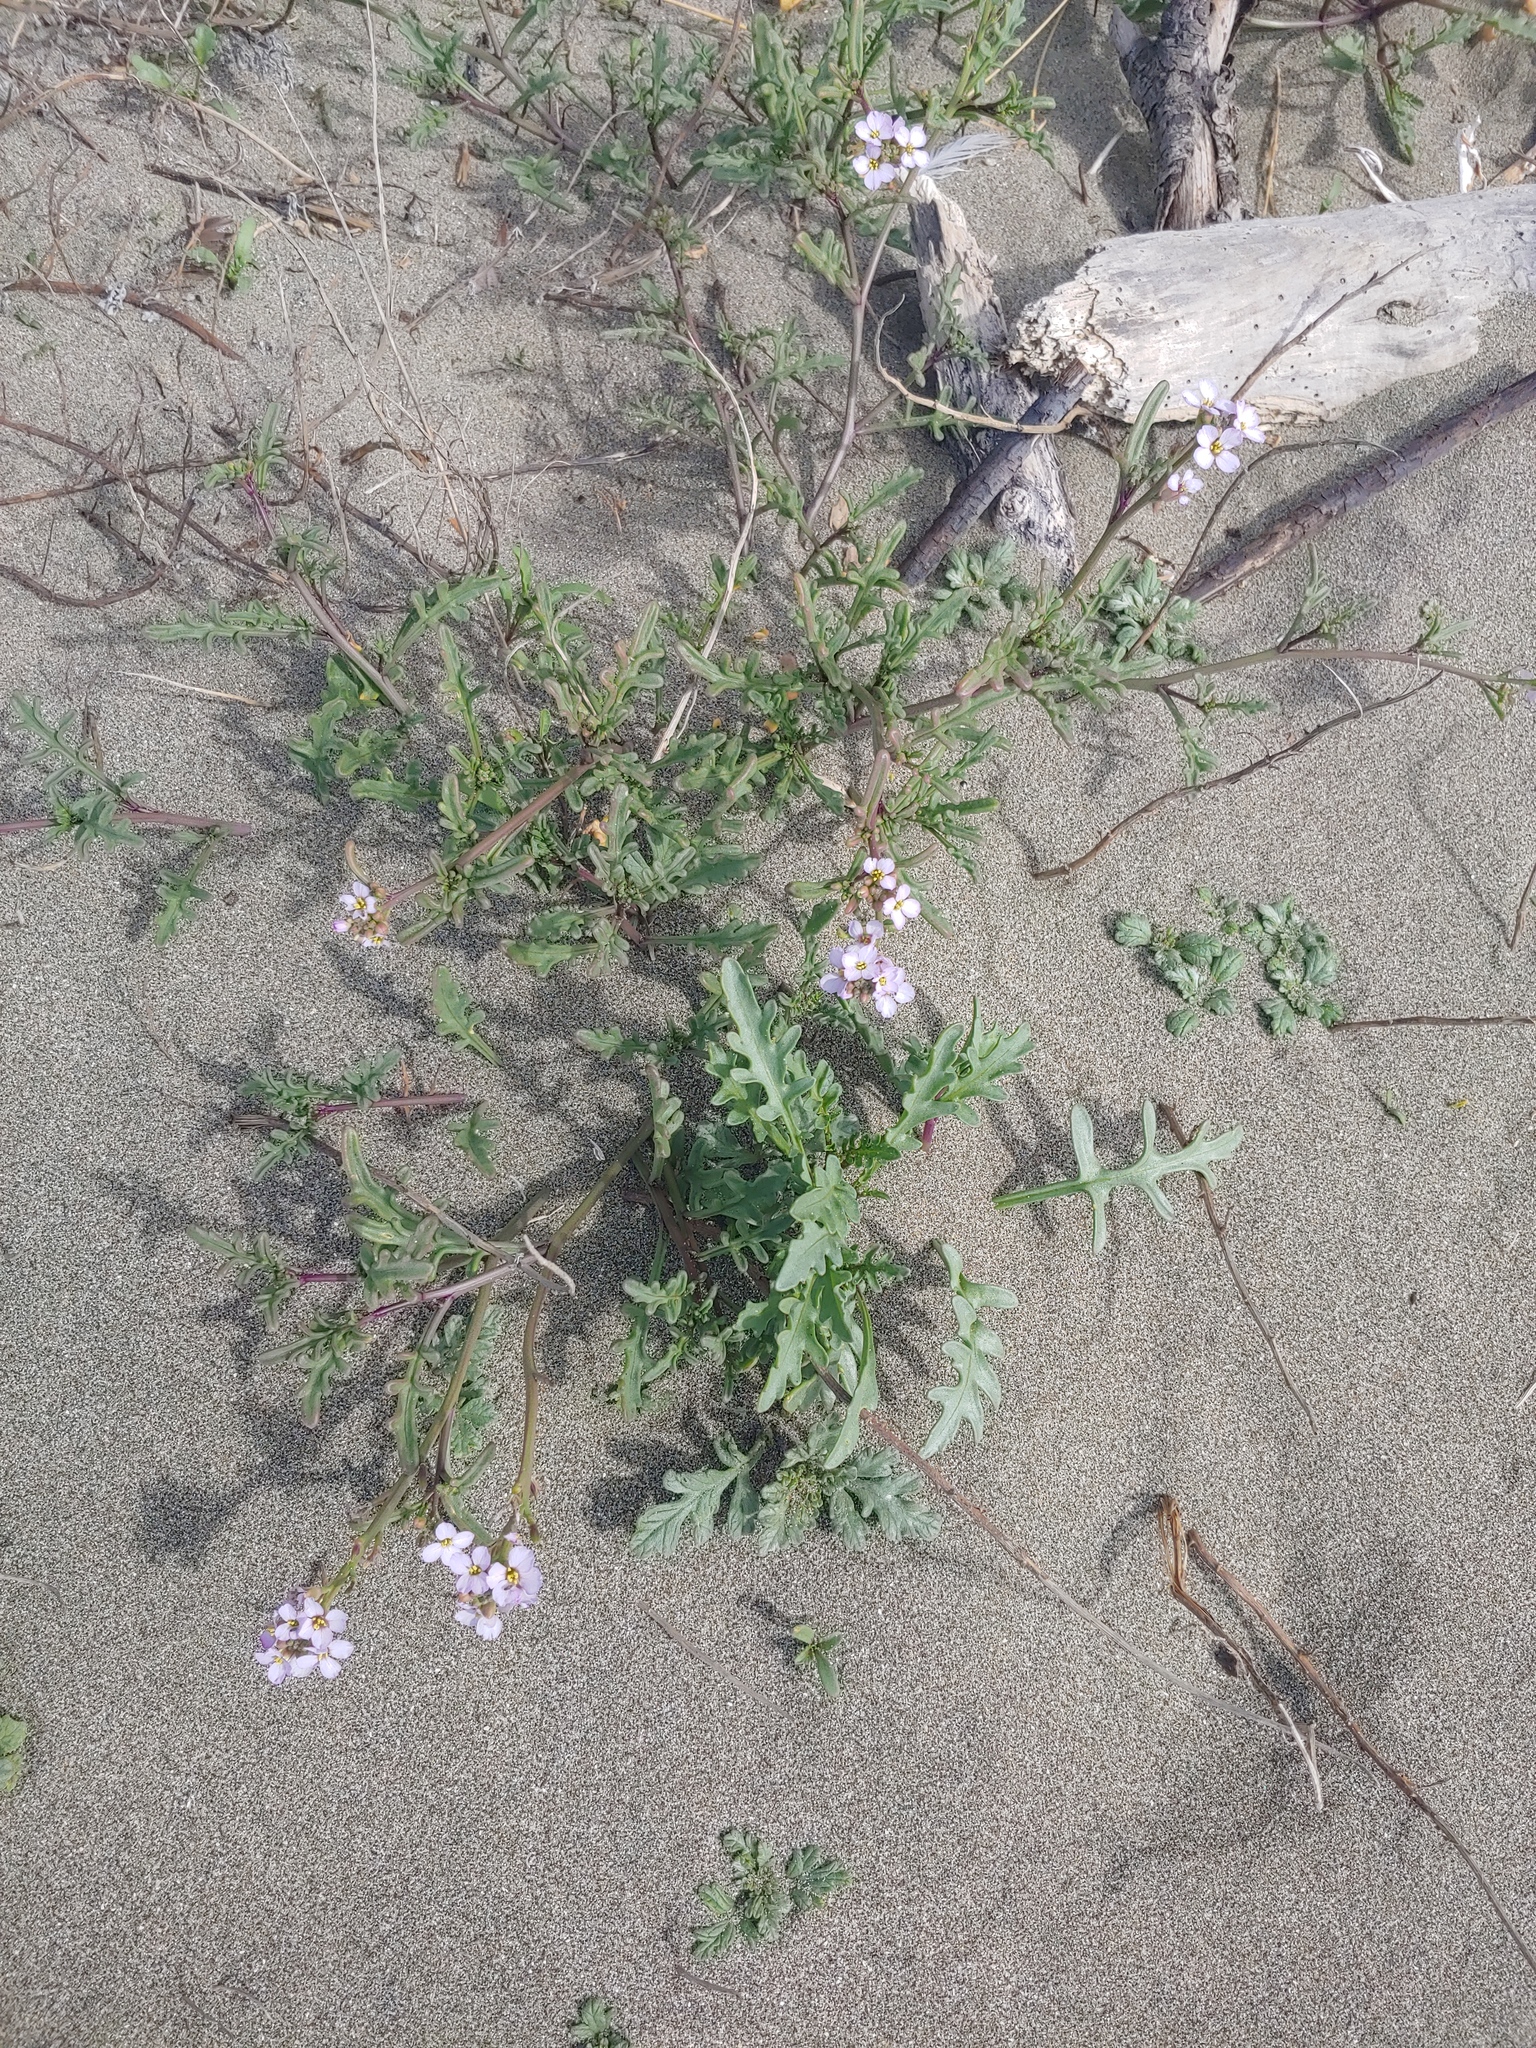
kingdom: Plantae
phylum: Tracheophyta
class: Magnoliopsida
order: Brassicales
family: Brassicaceae
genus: Cakile
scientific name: Cakile maritima
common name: Sea rocket
